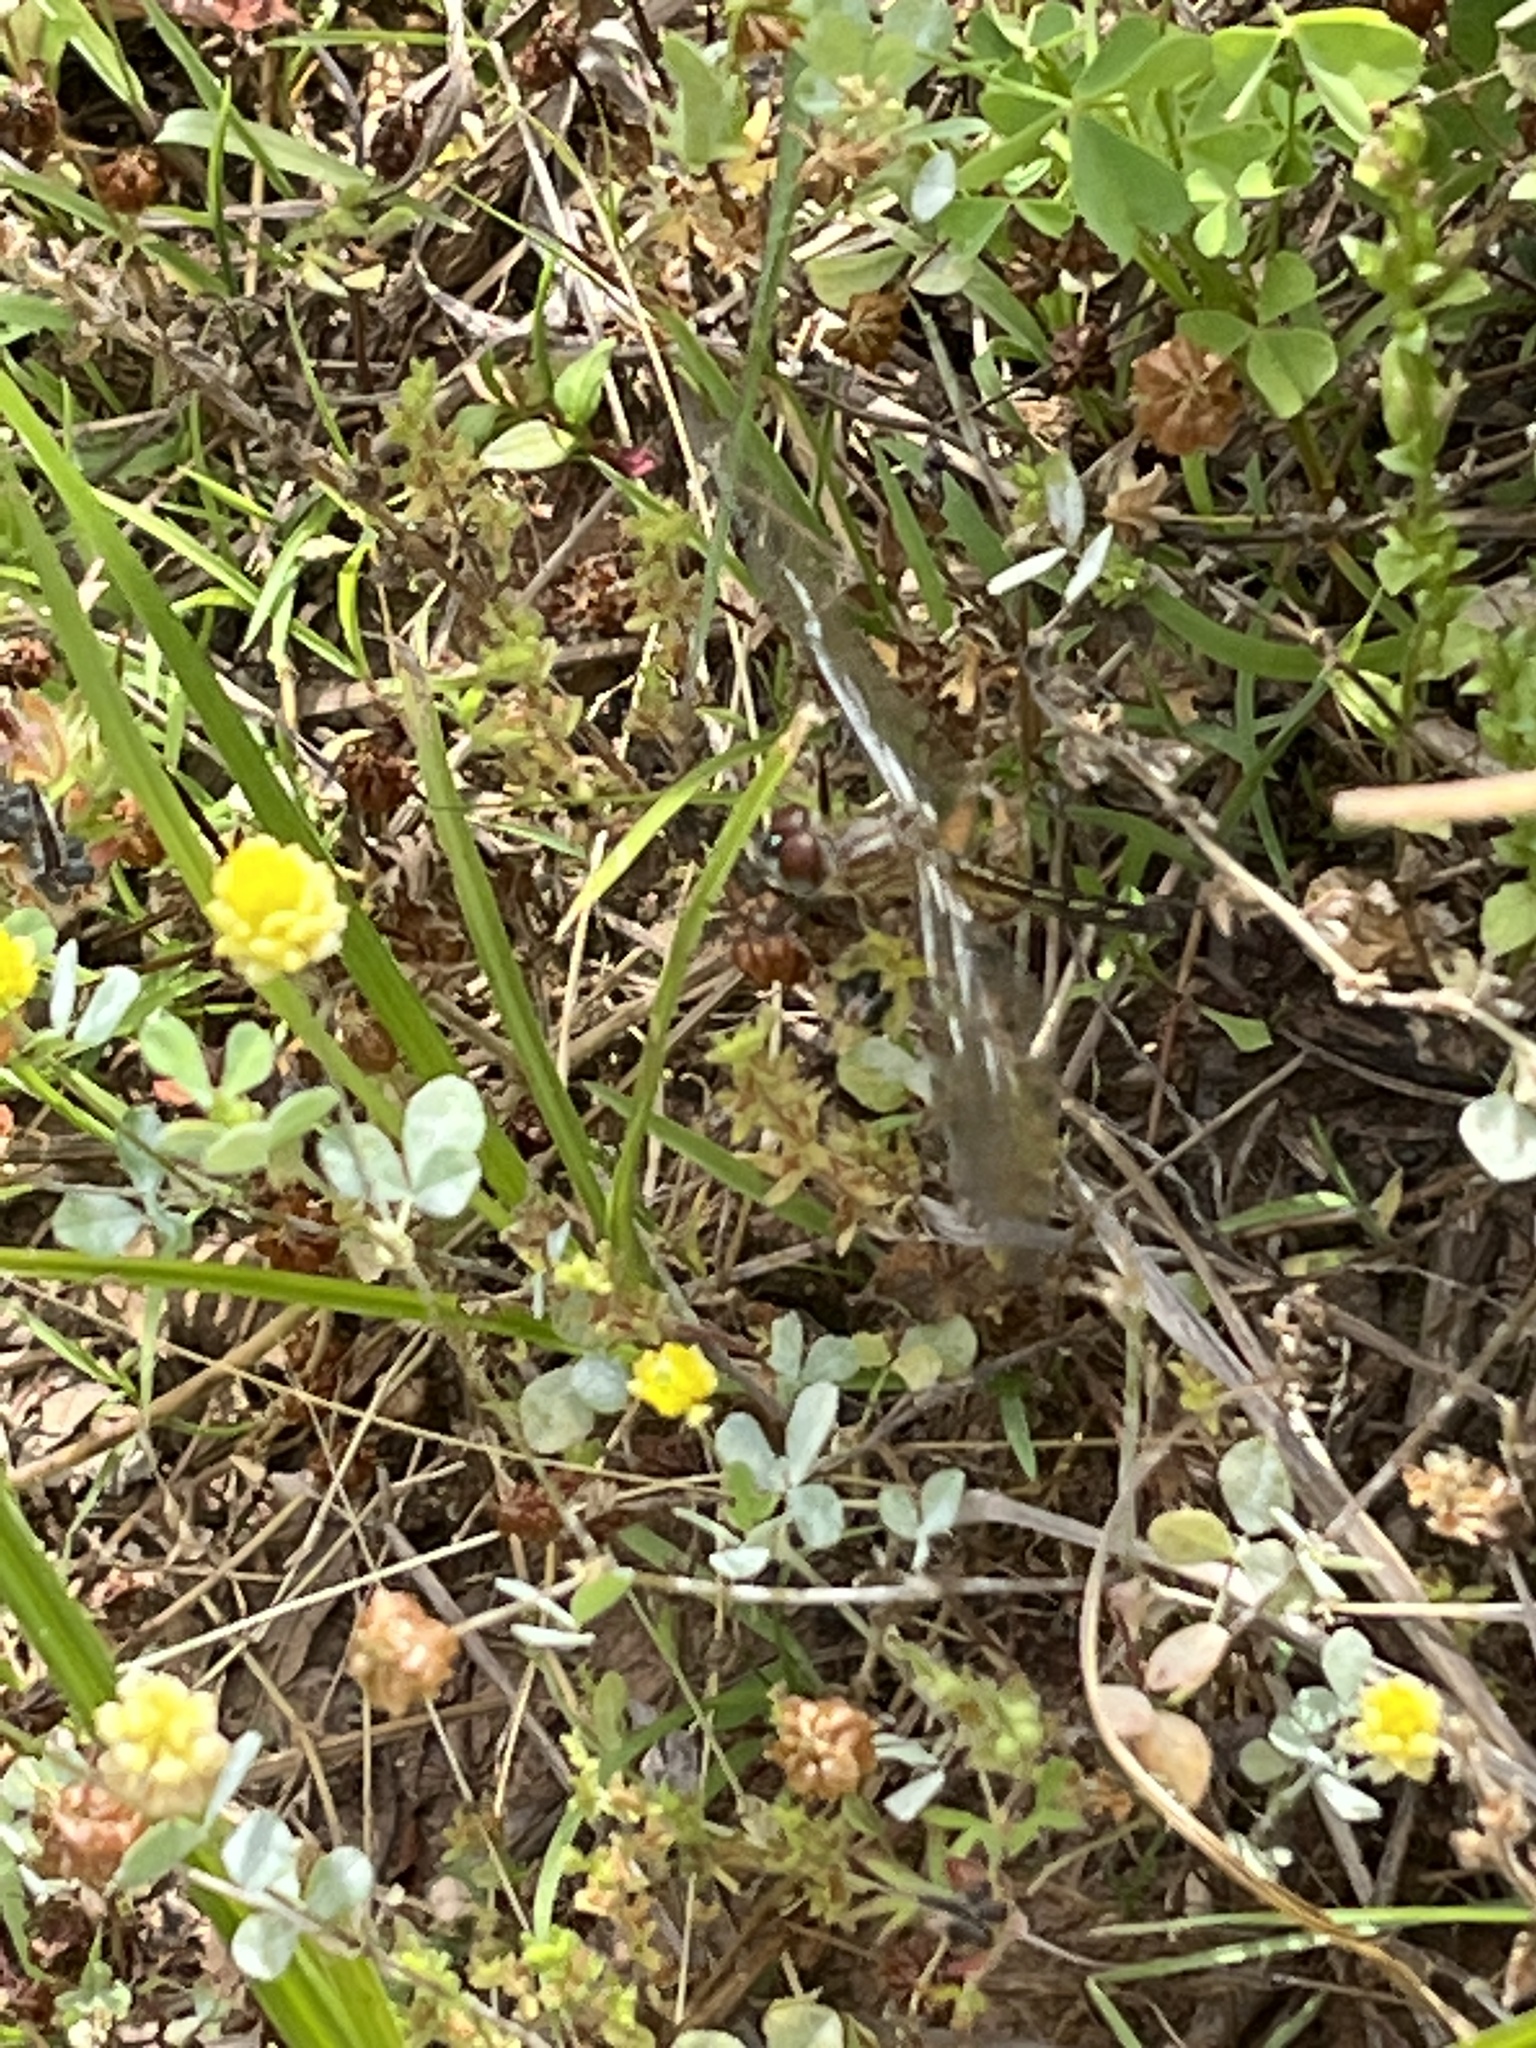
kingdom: Animalia
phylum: Arthropoda
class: Insecta
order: Odonata
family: Libellulidae
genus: Pachydiplax
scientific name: Pachydiplax longipennis
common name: Blue dasher
